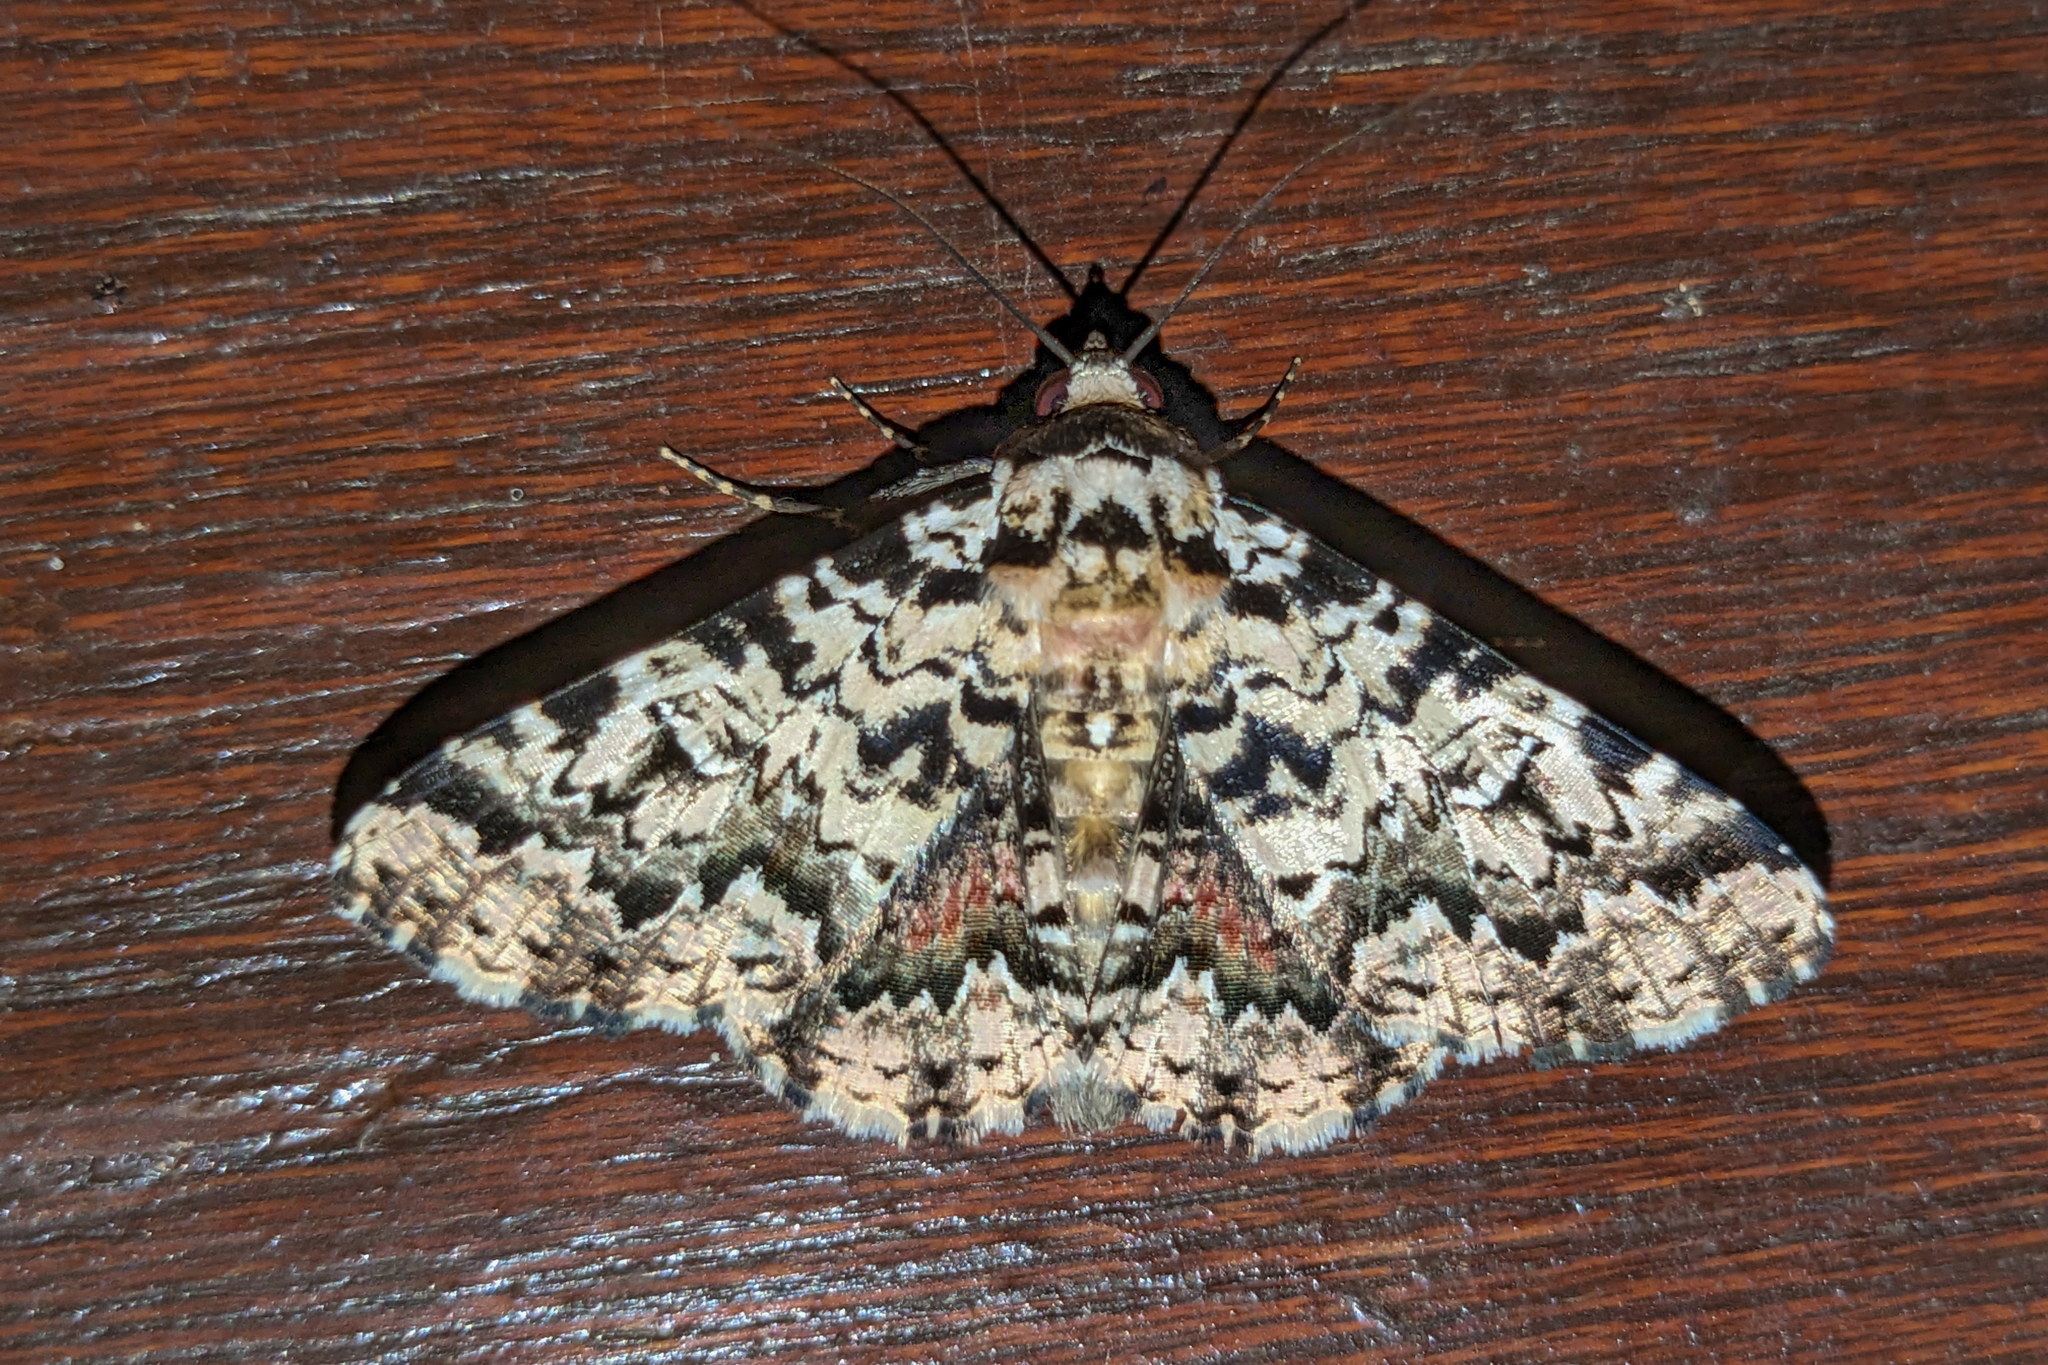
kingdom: Animalia
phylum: Arthropoda
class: Insecta
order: Lepidoptera
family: Erebidae
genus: Metria
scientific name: Metria binea
